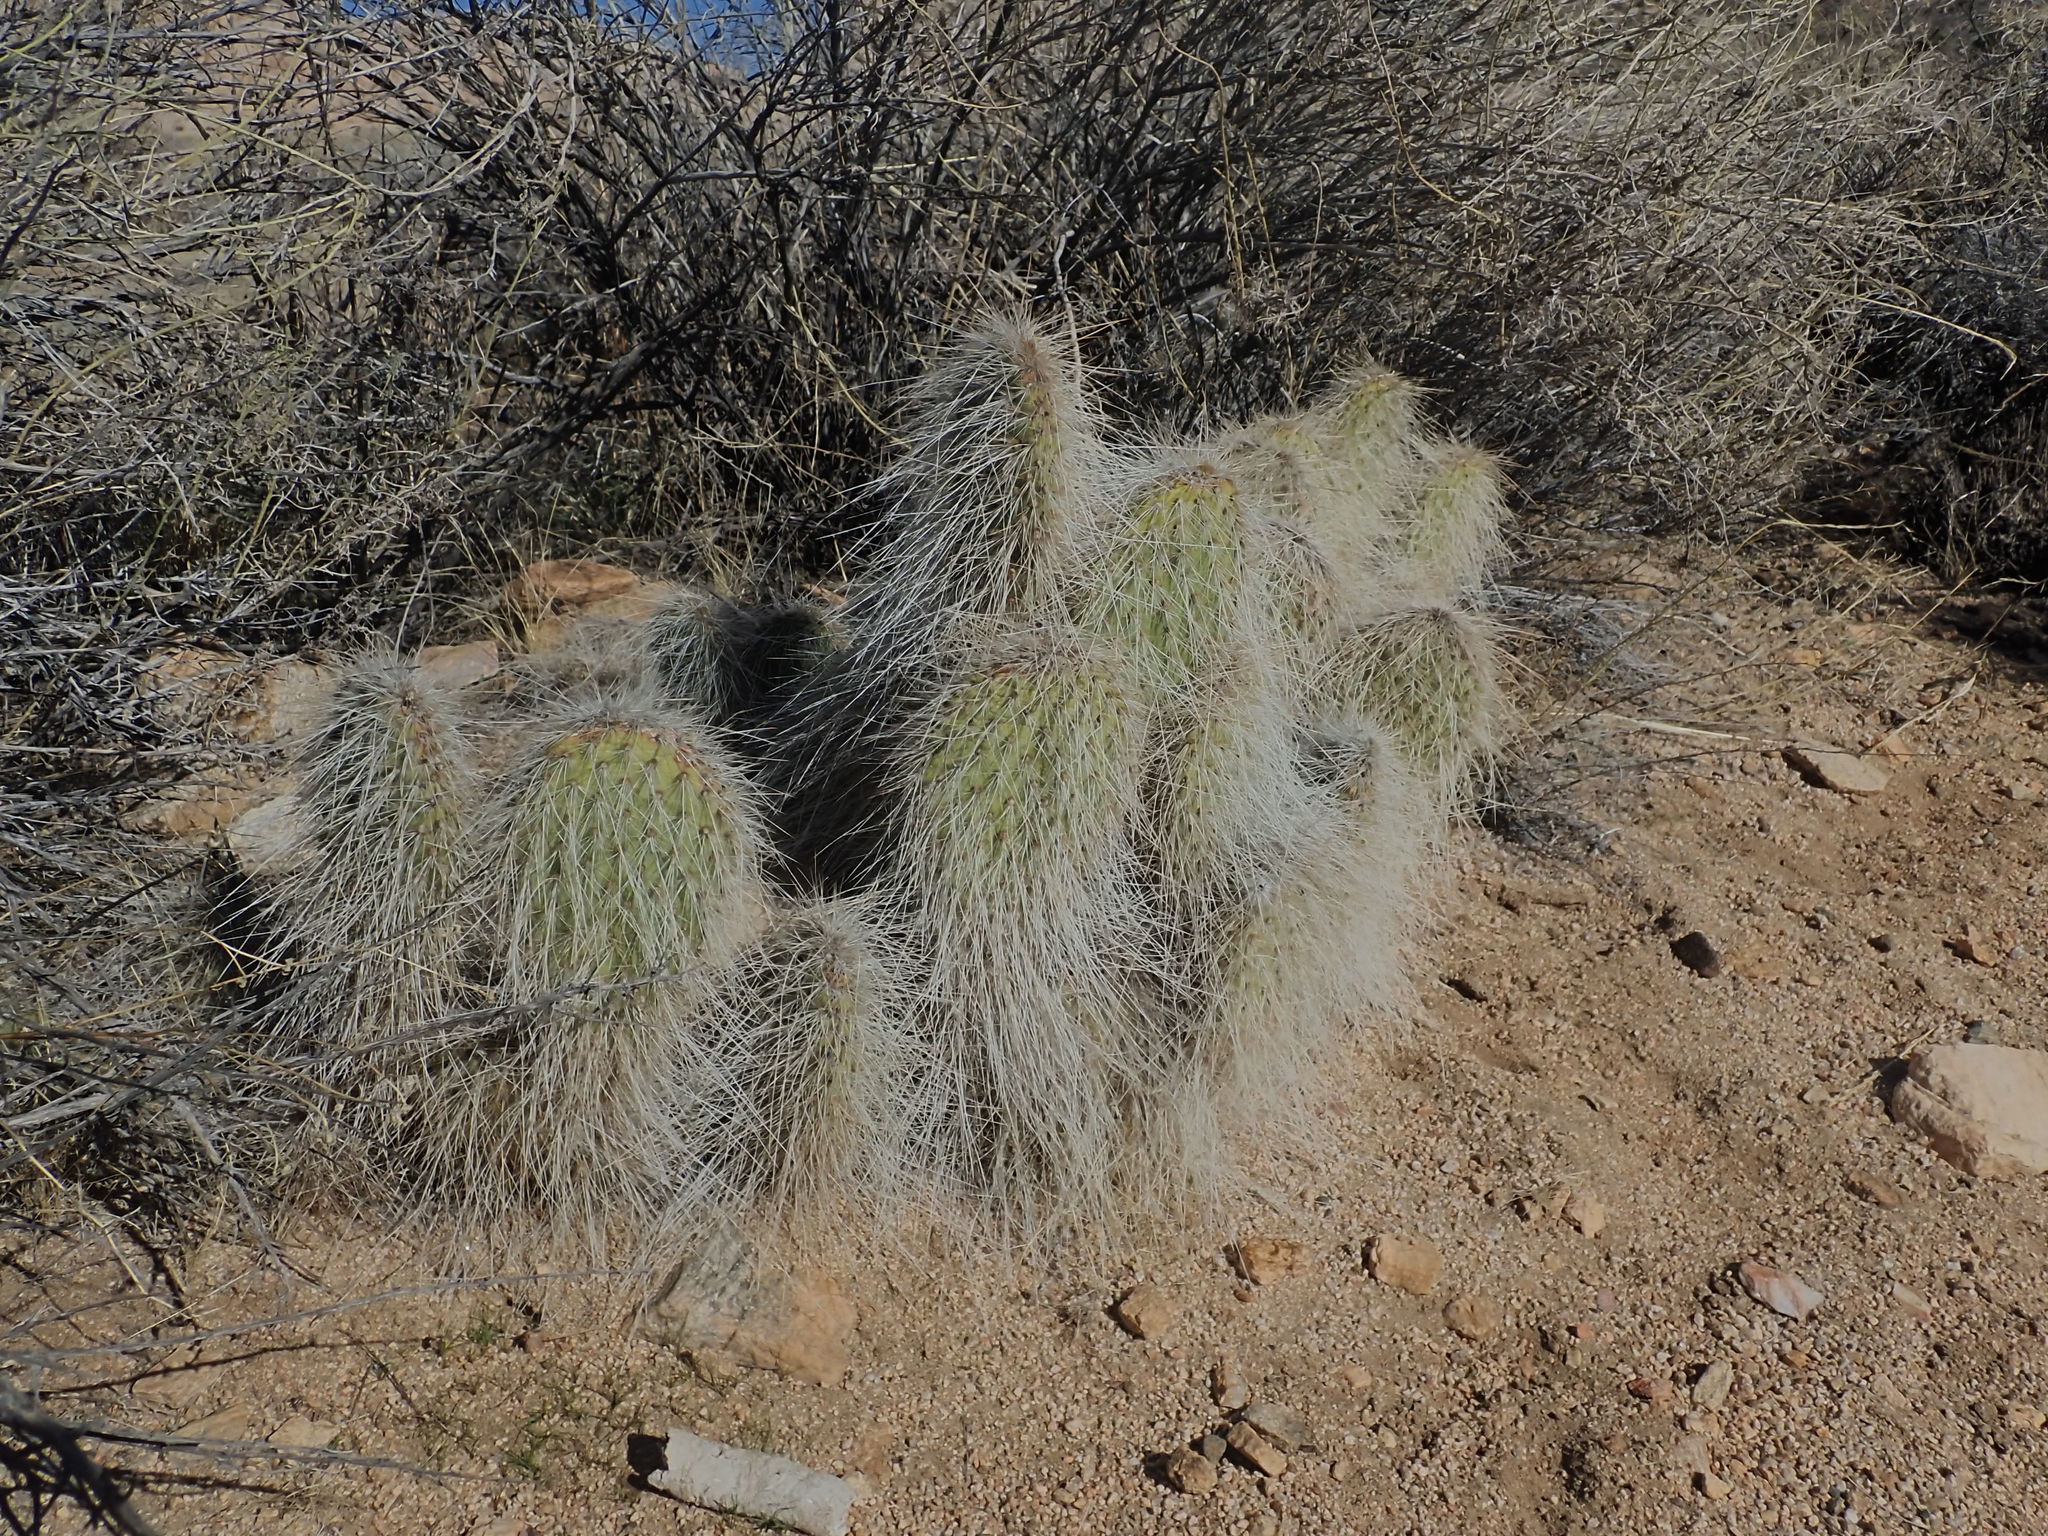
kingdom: Plantae
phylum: Tracheophyta
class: Magnoliopsida
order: Caryophyllales
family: Cactaceae
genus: Opuntia
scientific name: Opuntia polyacantha
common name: Plains prickly-pear
